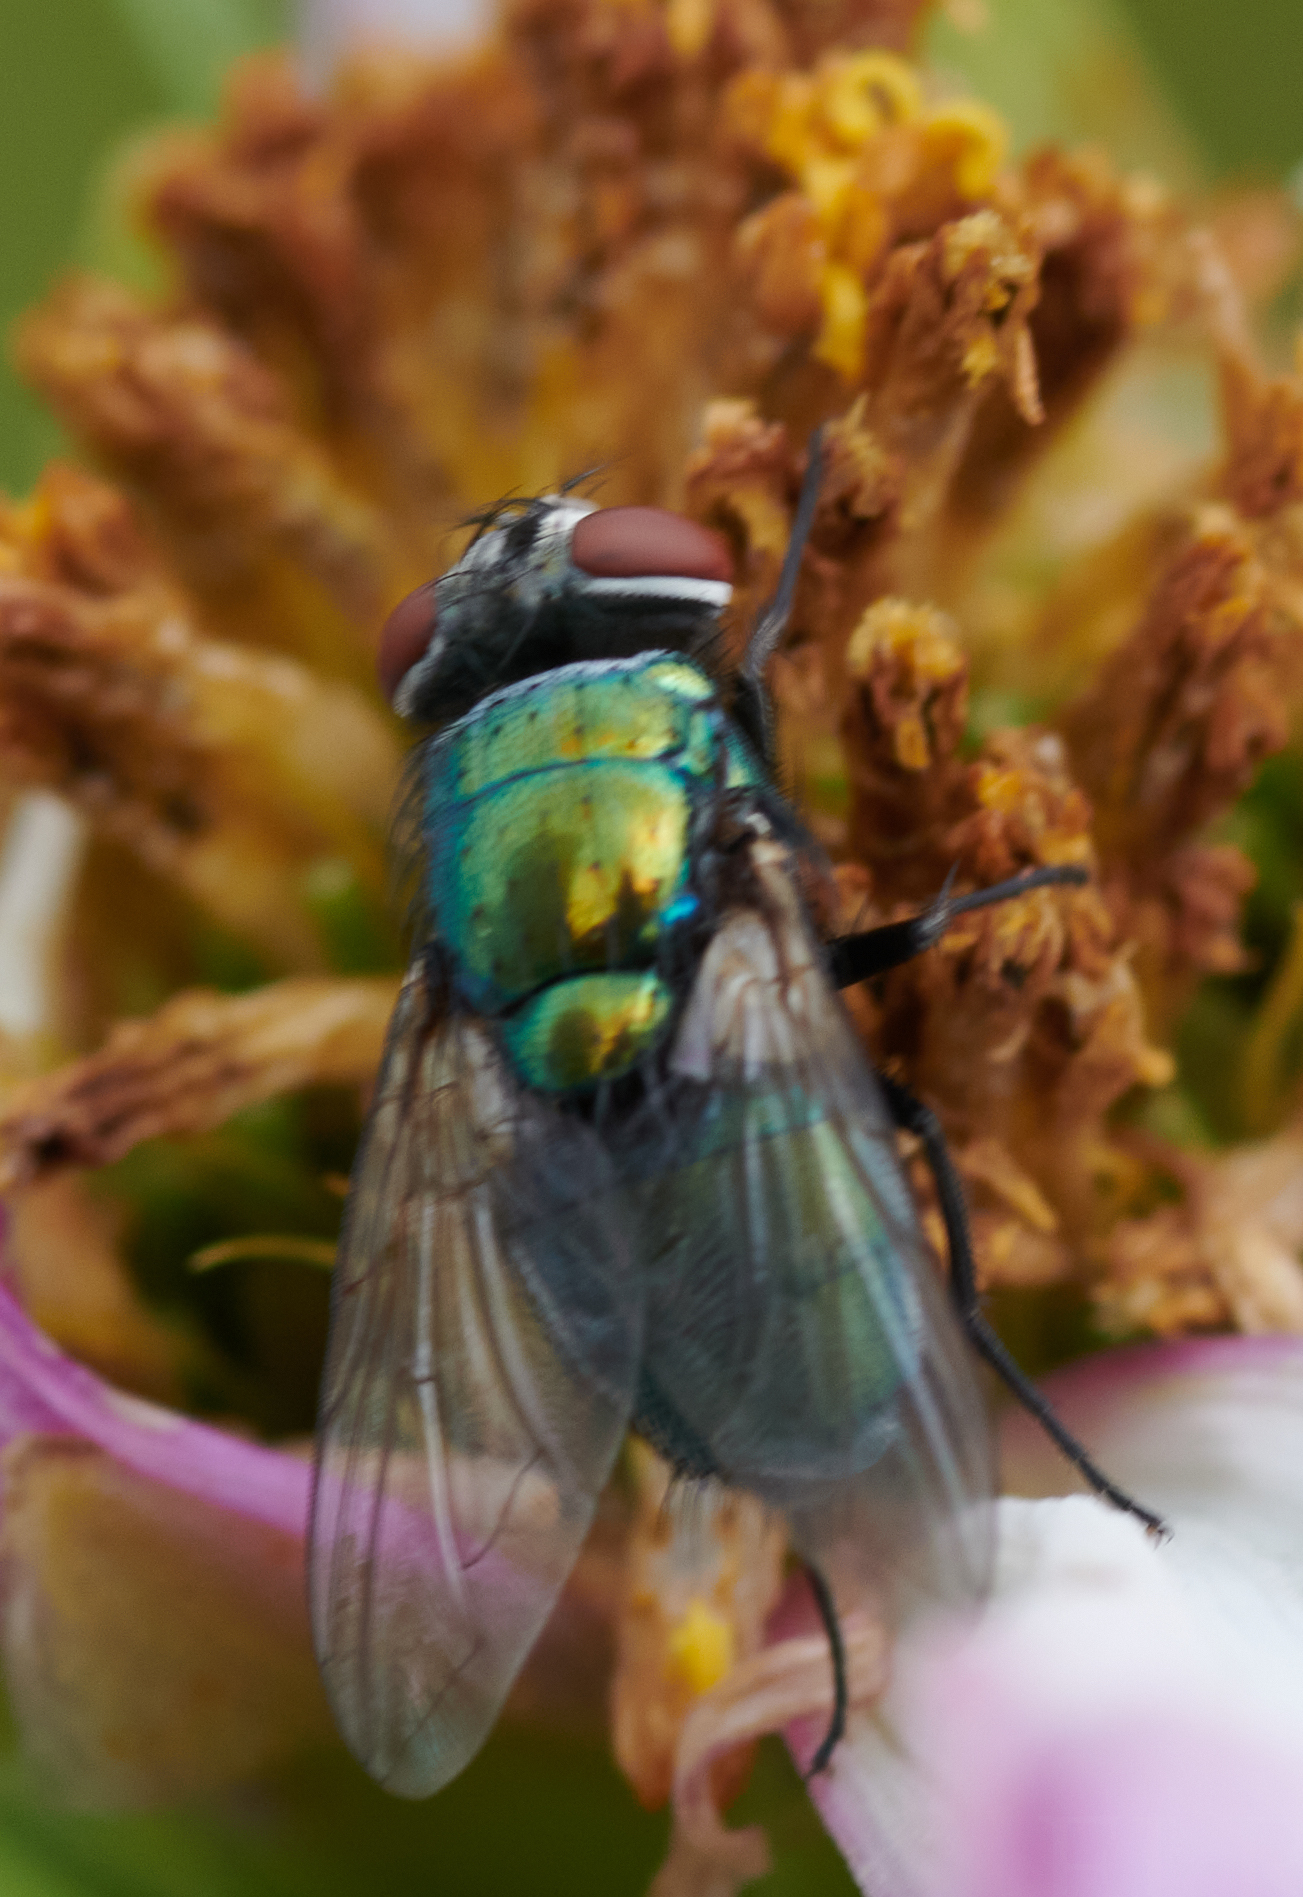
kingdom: Animalia
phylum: Arthropoda
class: Insecta
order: Diptera
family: Calliphoridae
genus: Lucilia
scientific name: Lucilia sericata
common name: Blow fly
